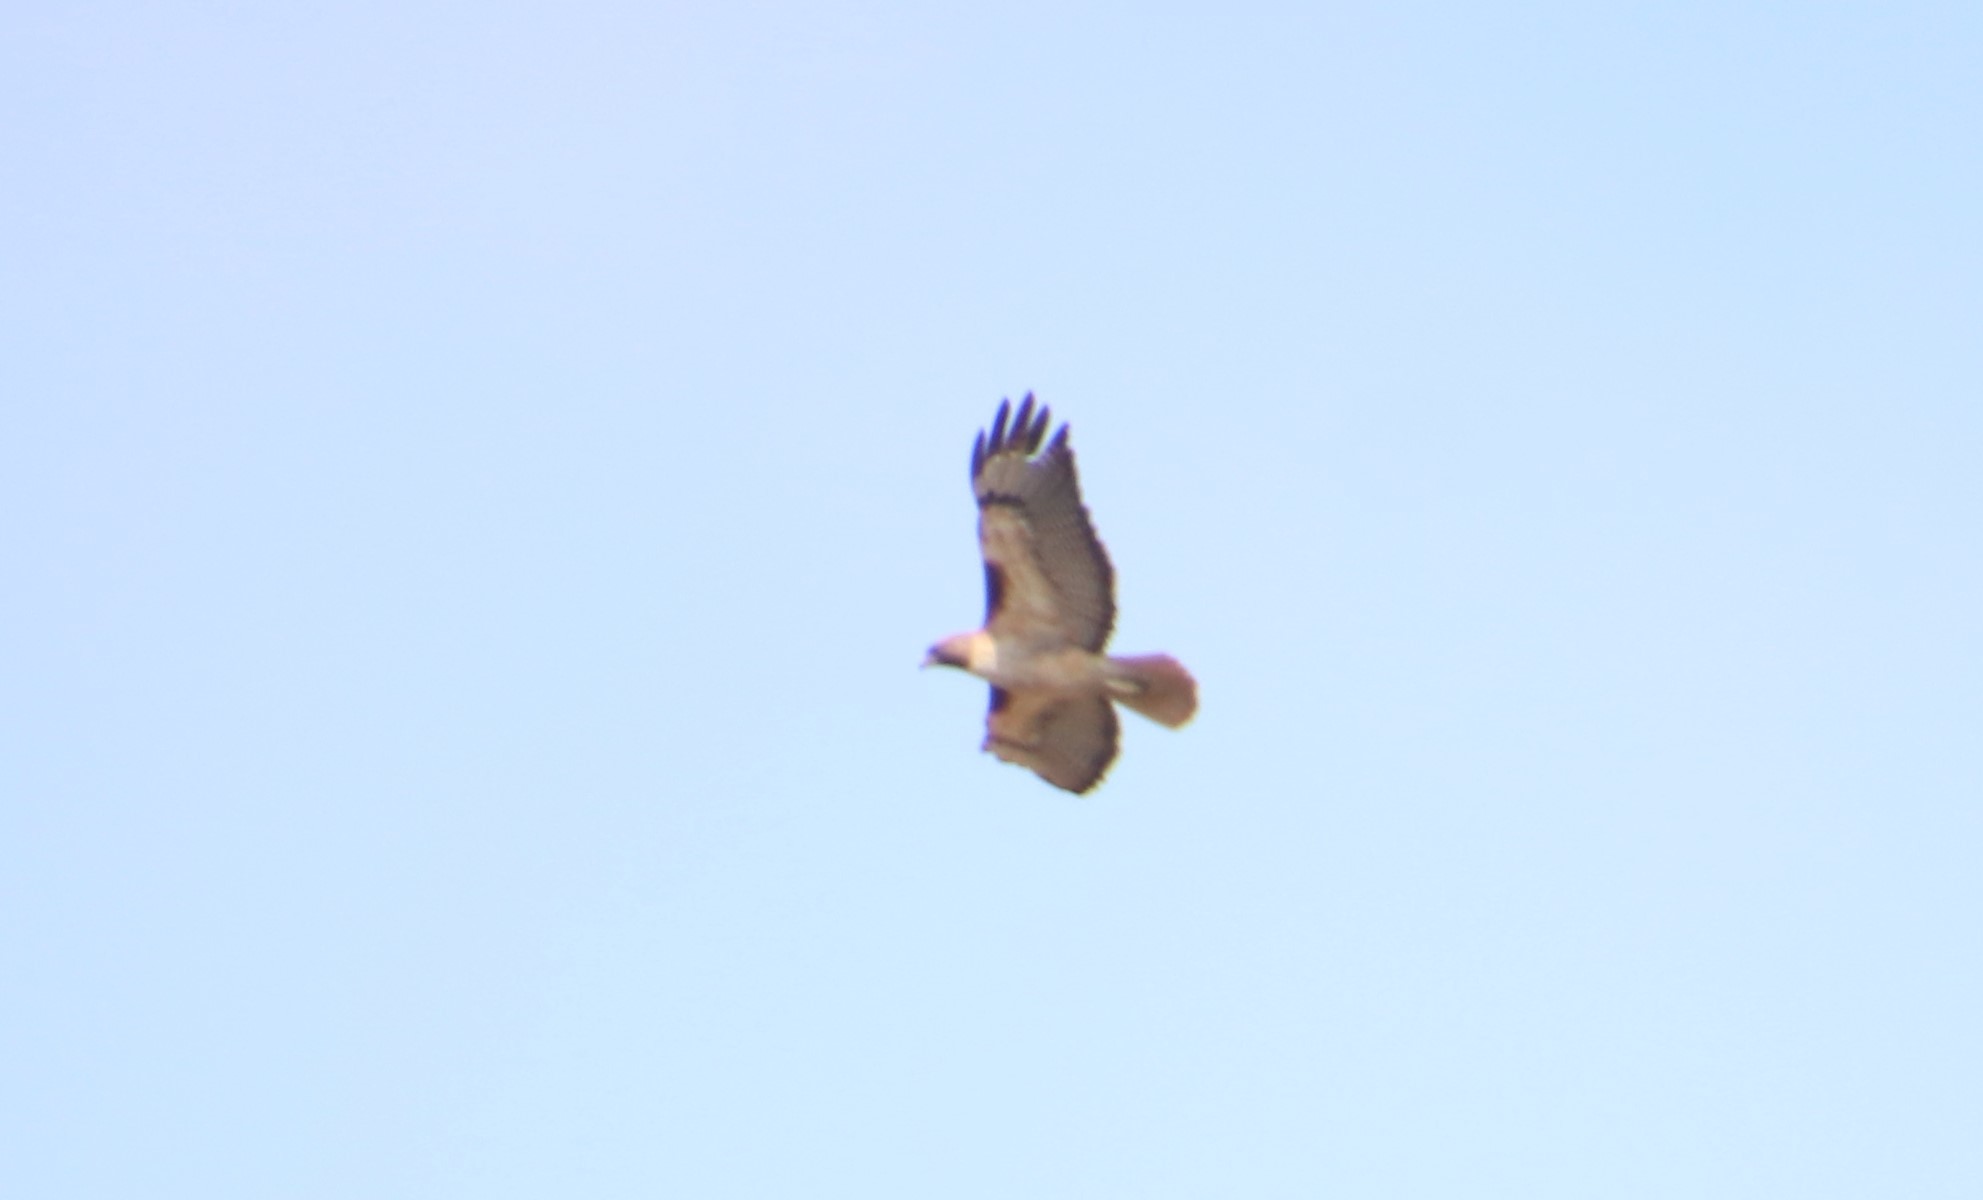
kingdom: Animalia
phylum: Chordata
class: Aves
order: Accipitriformes
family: Accipitridae
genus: Buteo
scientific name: Buteo jamaicensis
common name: Red-tailed hawk
